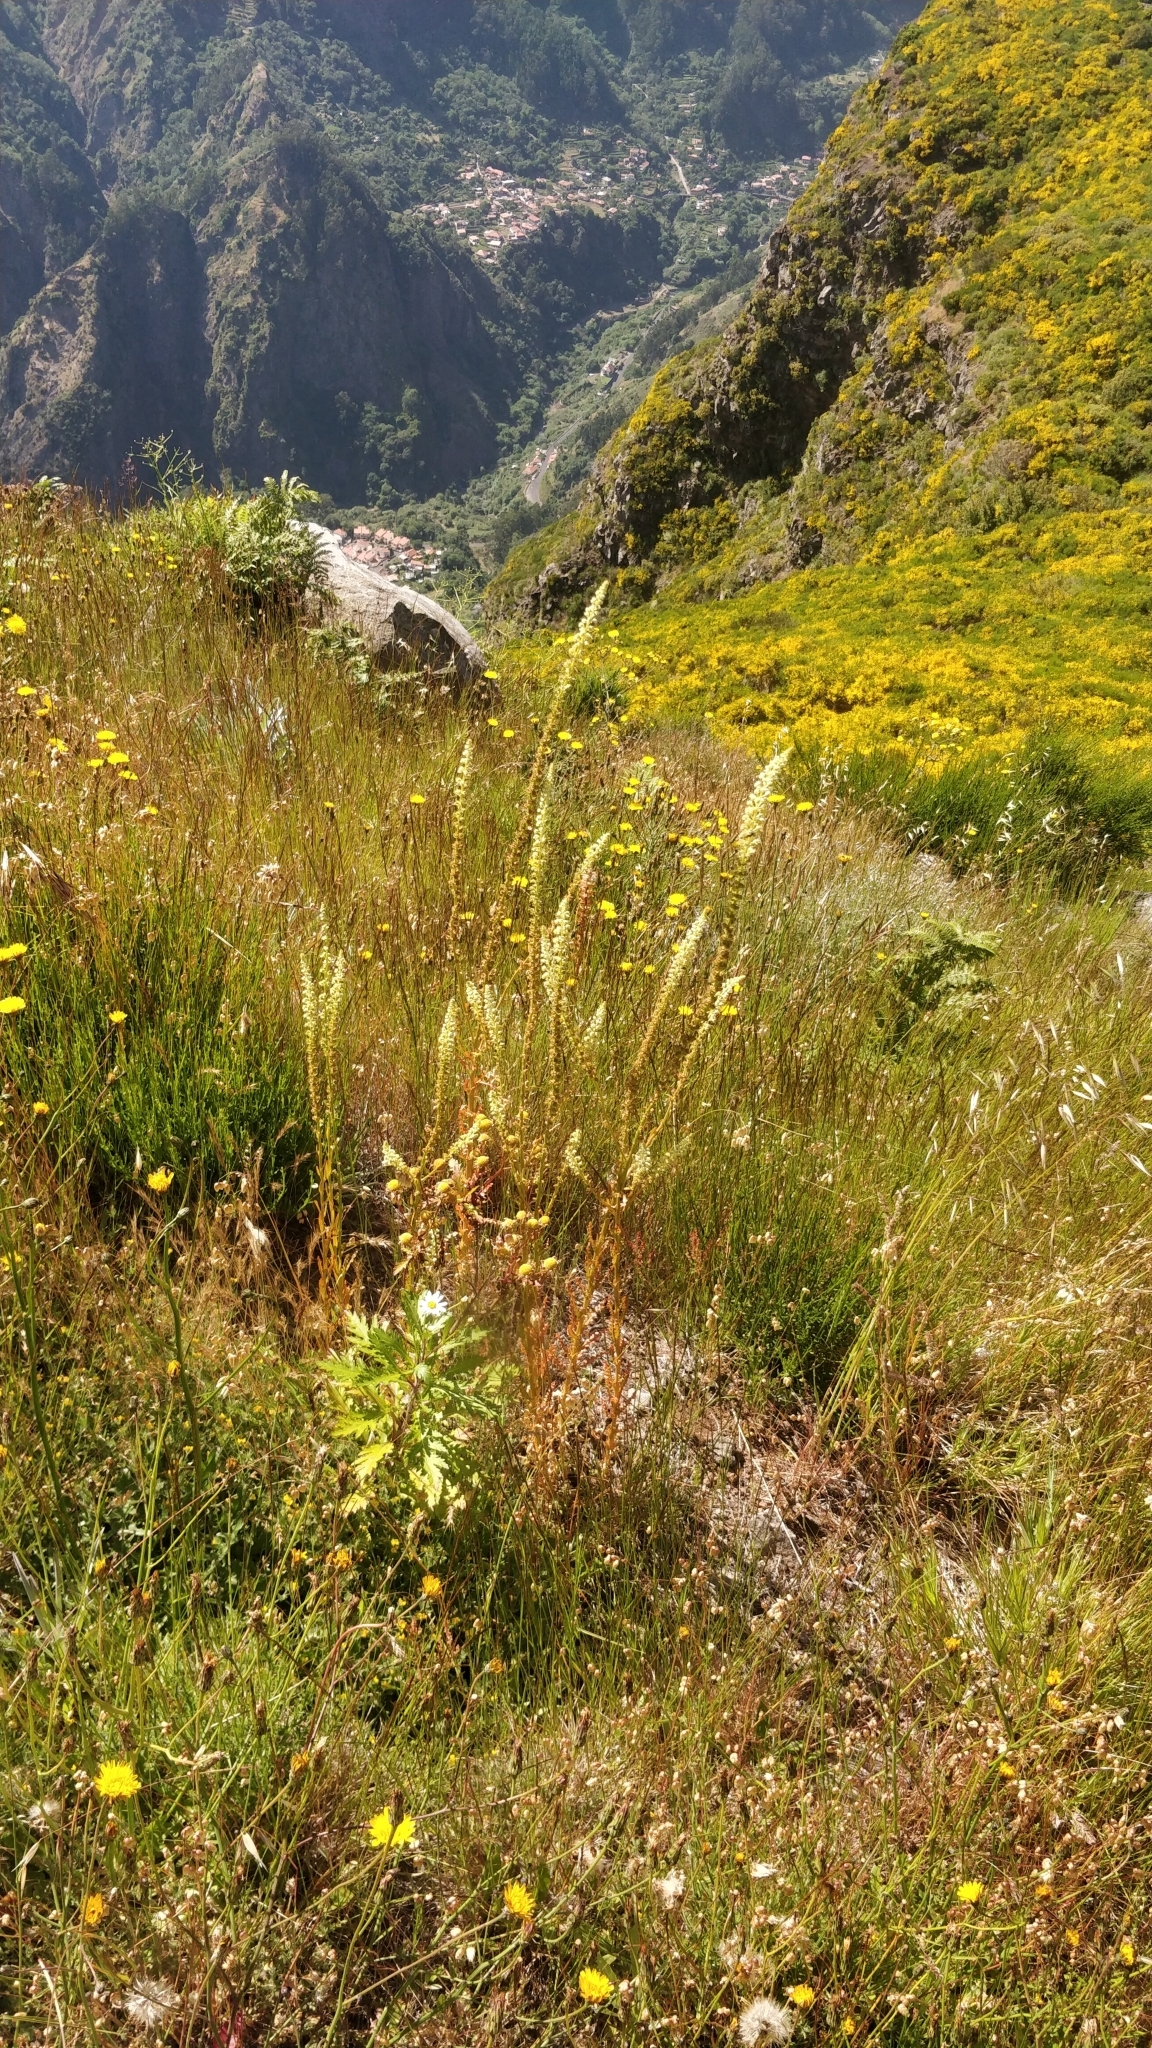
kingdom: Plantae
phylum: Tracheophyta
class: Magnoliopsida
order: Brassicales
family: Resedaceae
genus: Reseda
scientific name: Reseda luteola
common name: Weld
